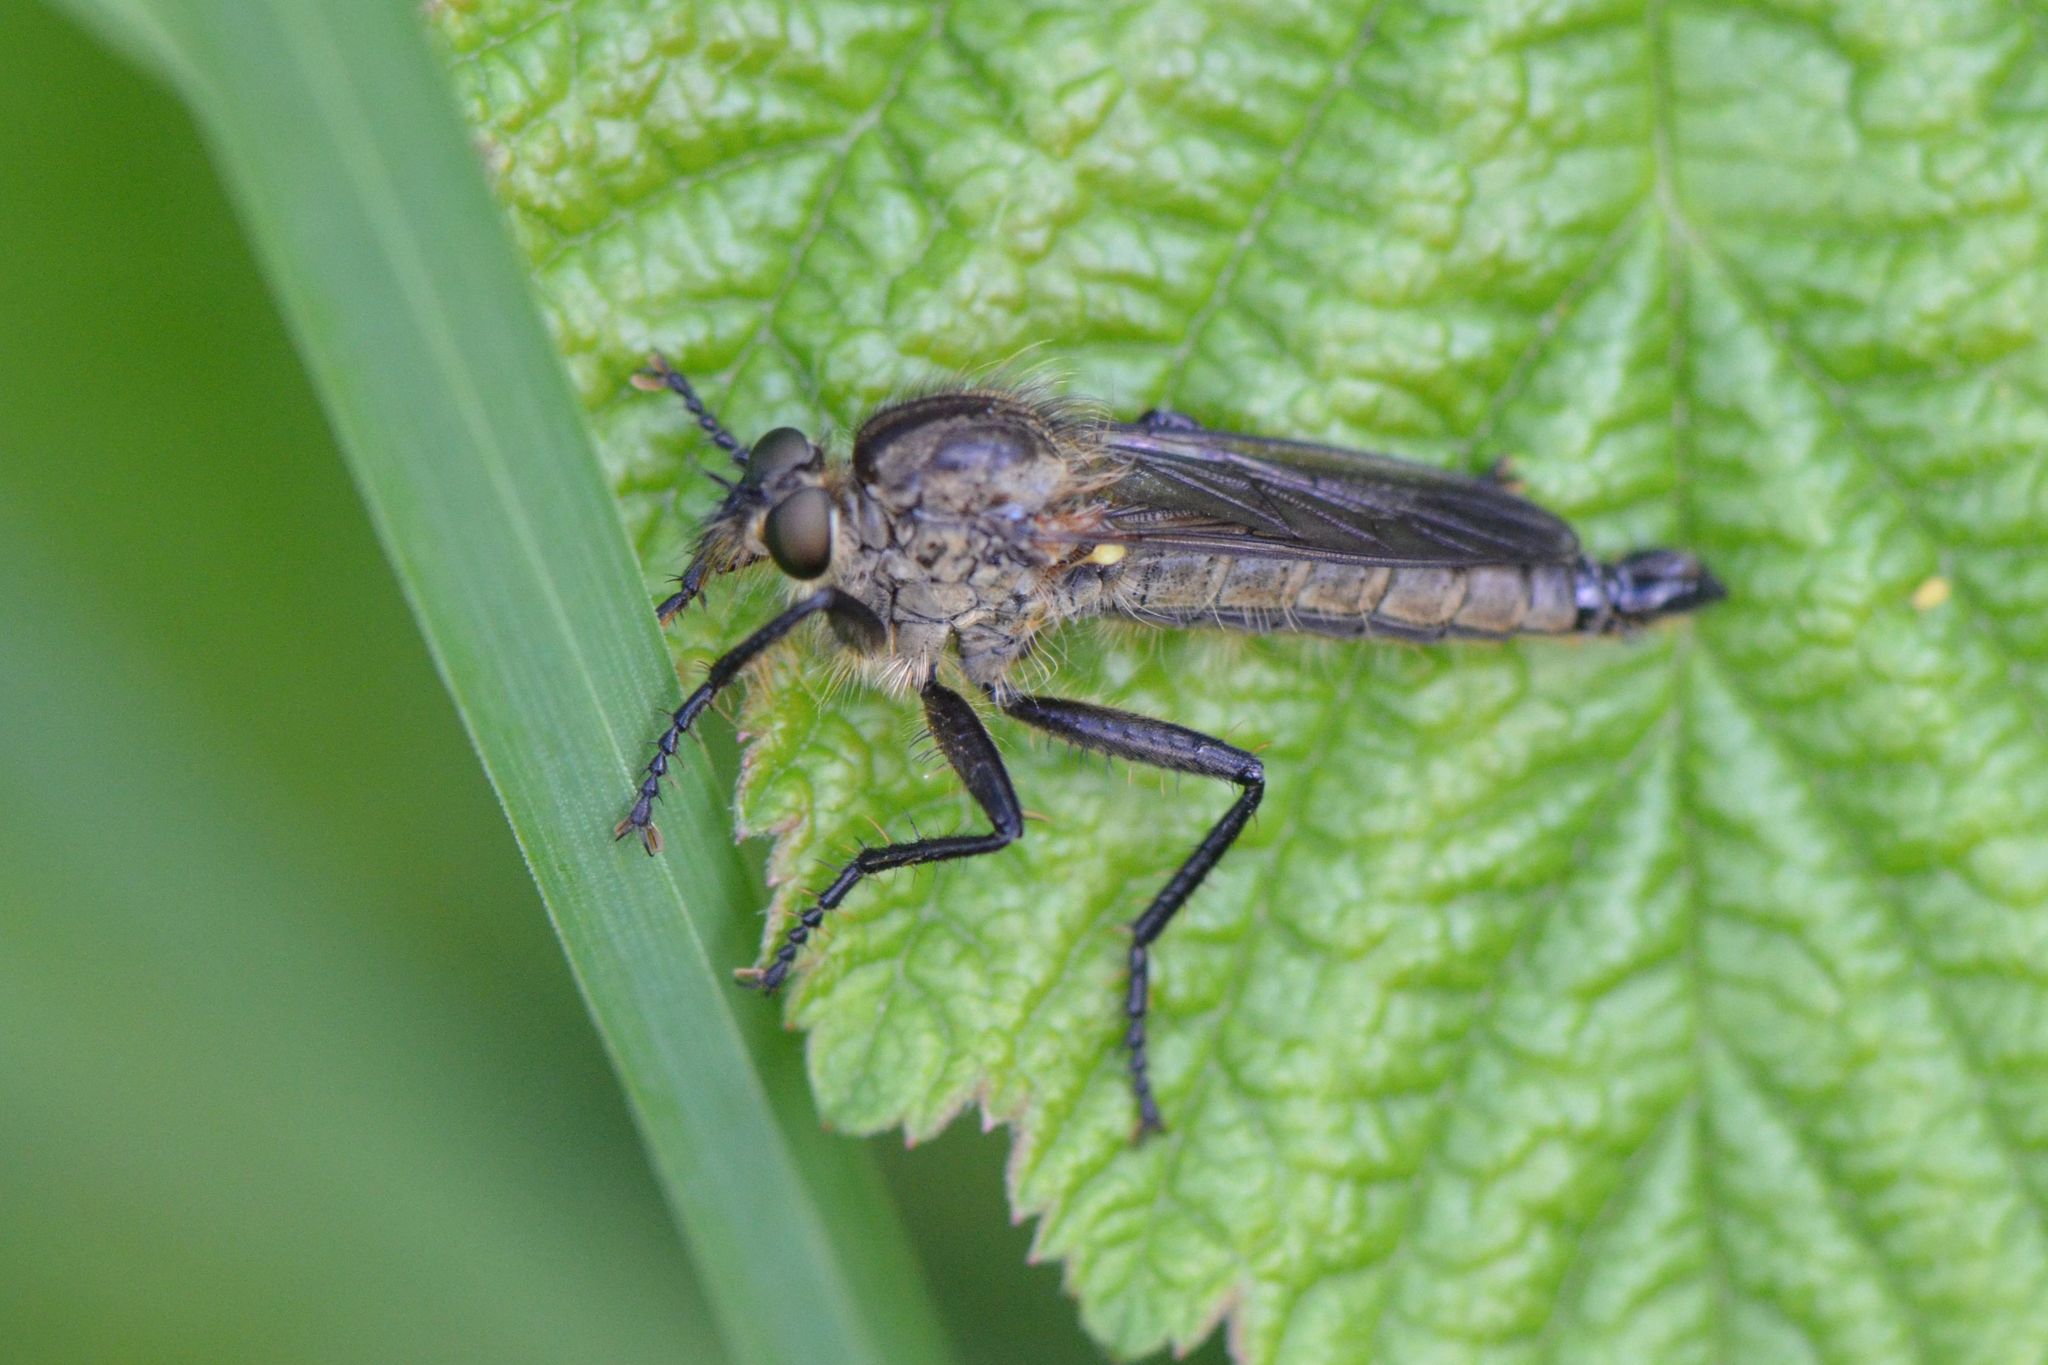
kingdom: Animalia
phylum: Arthropoda
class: Insecta
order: Diptera
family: Asilidae
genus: Didysmachus
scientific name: Didysmachus picipes
